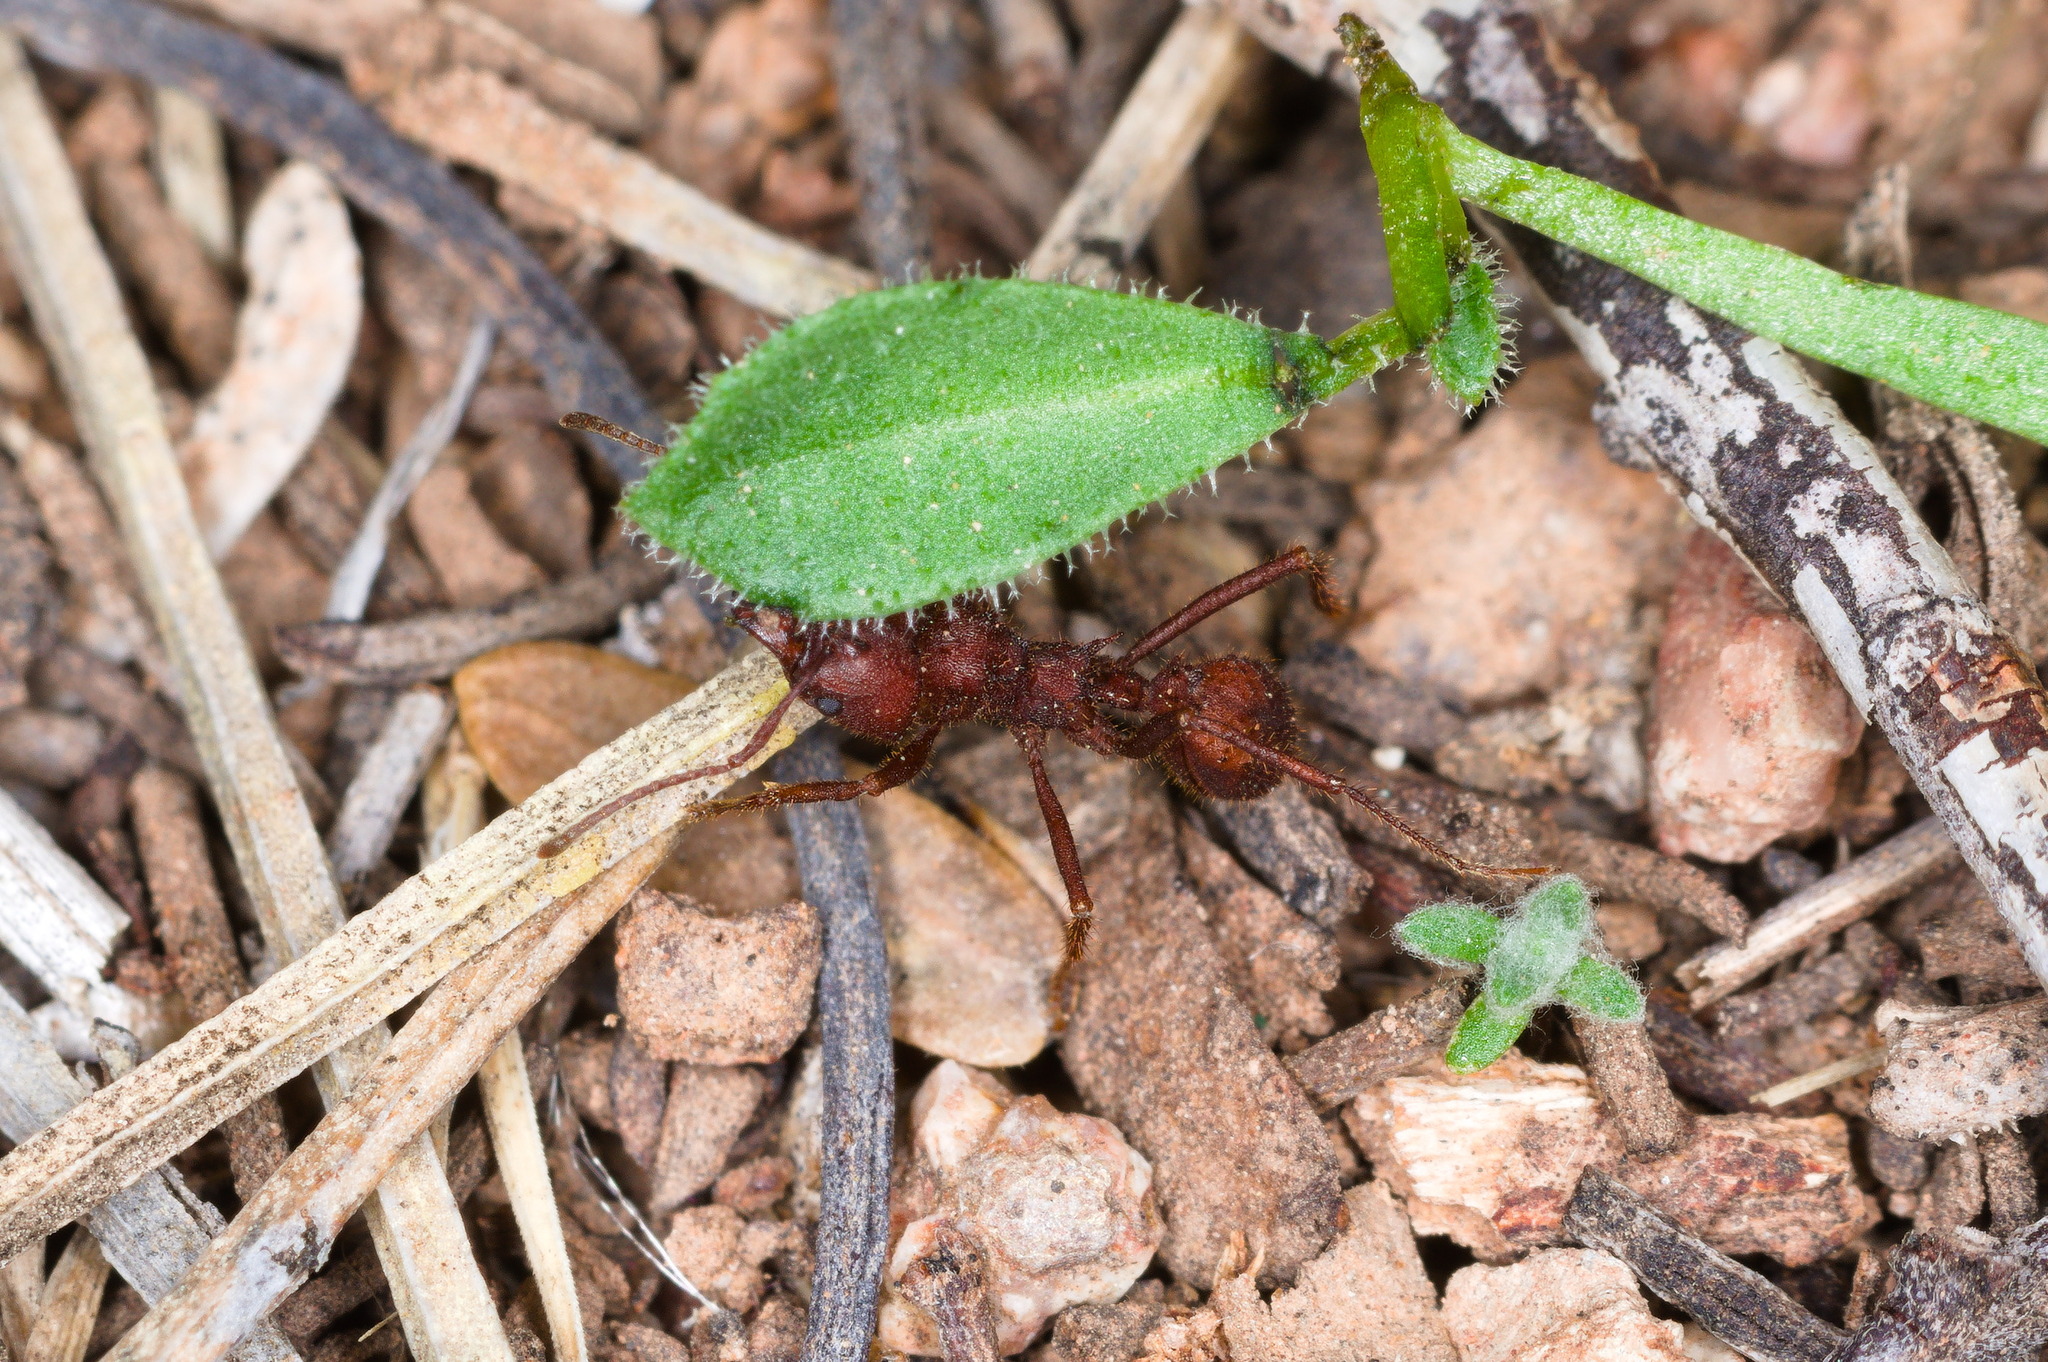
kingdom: Animalia
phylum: Arthropoda
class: Insecta
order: Hymenoptera
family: Formicidae
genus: Acromyrmex
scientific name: Acromyrmex versicolor
